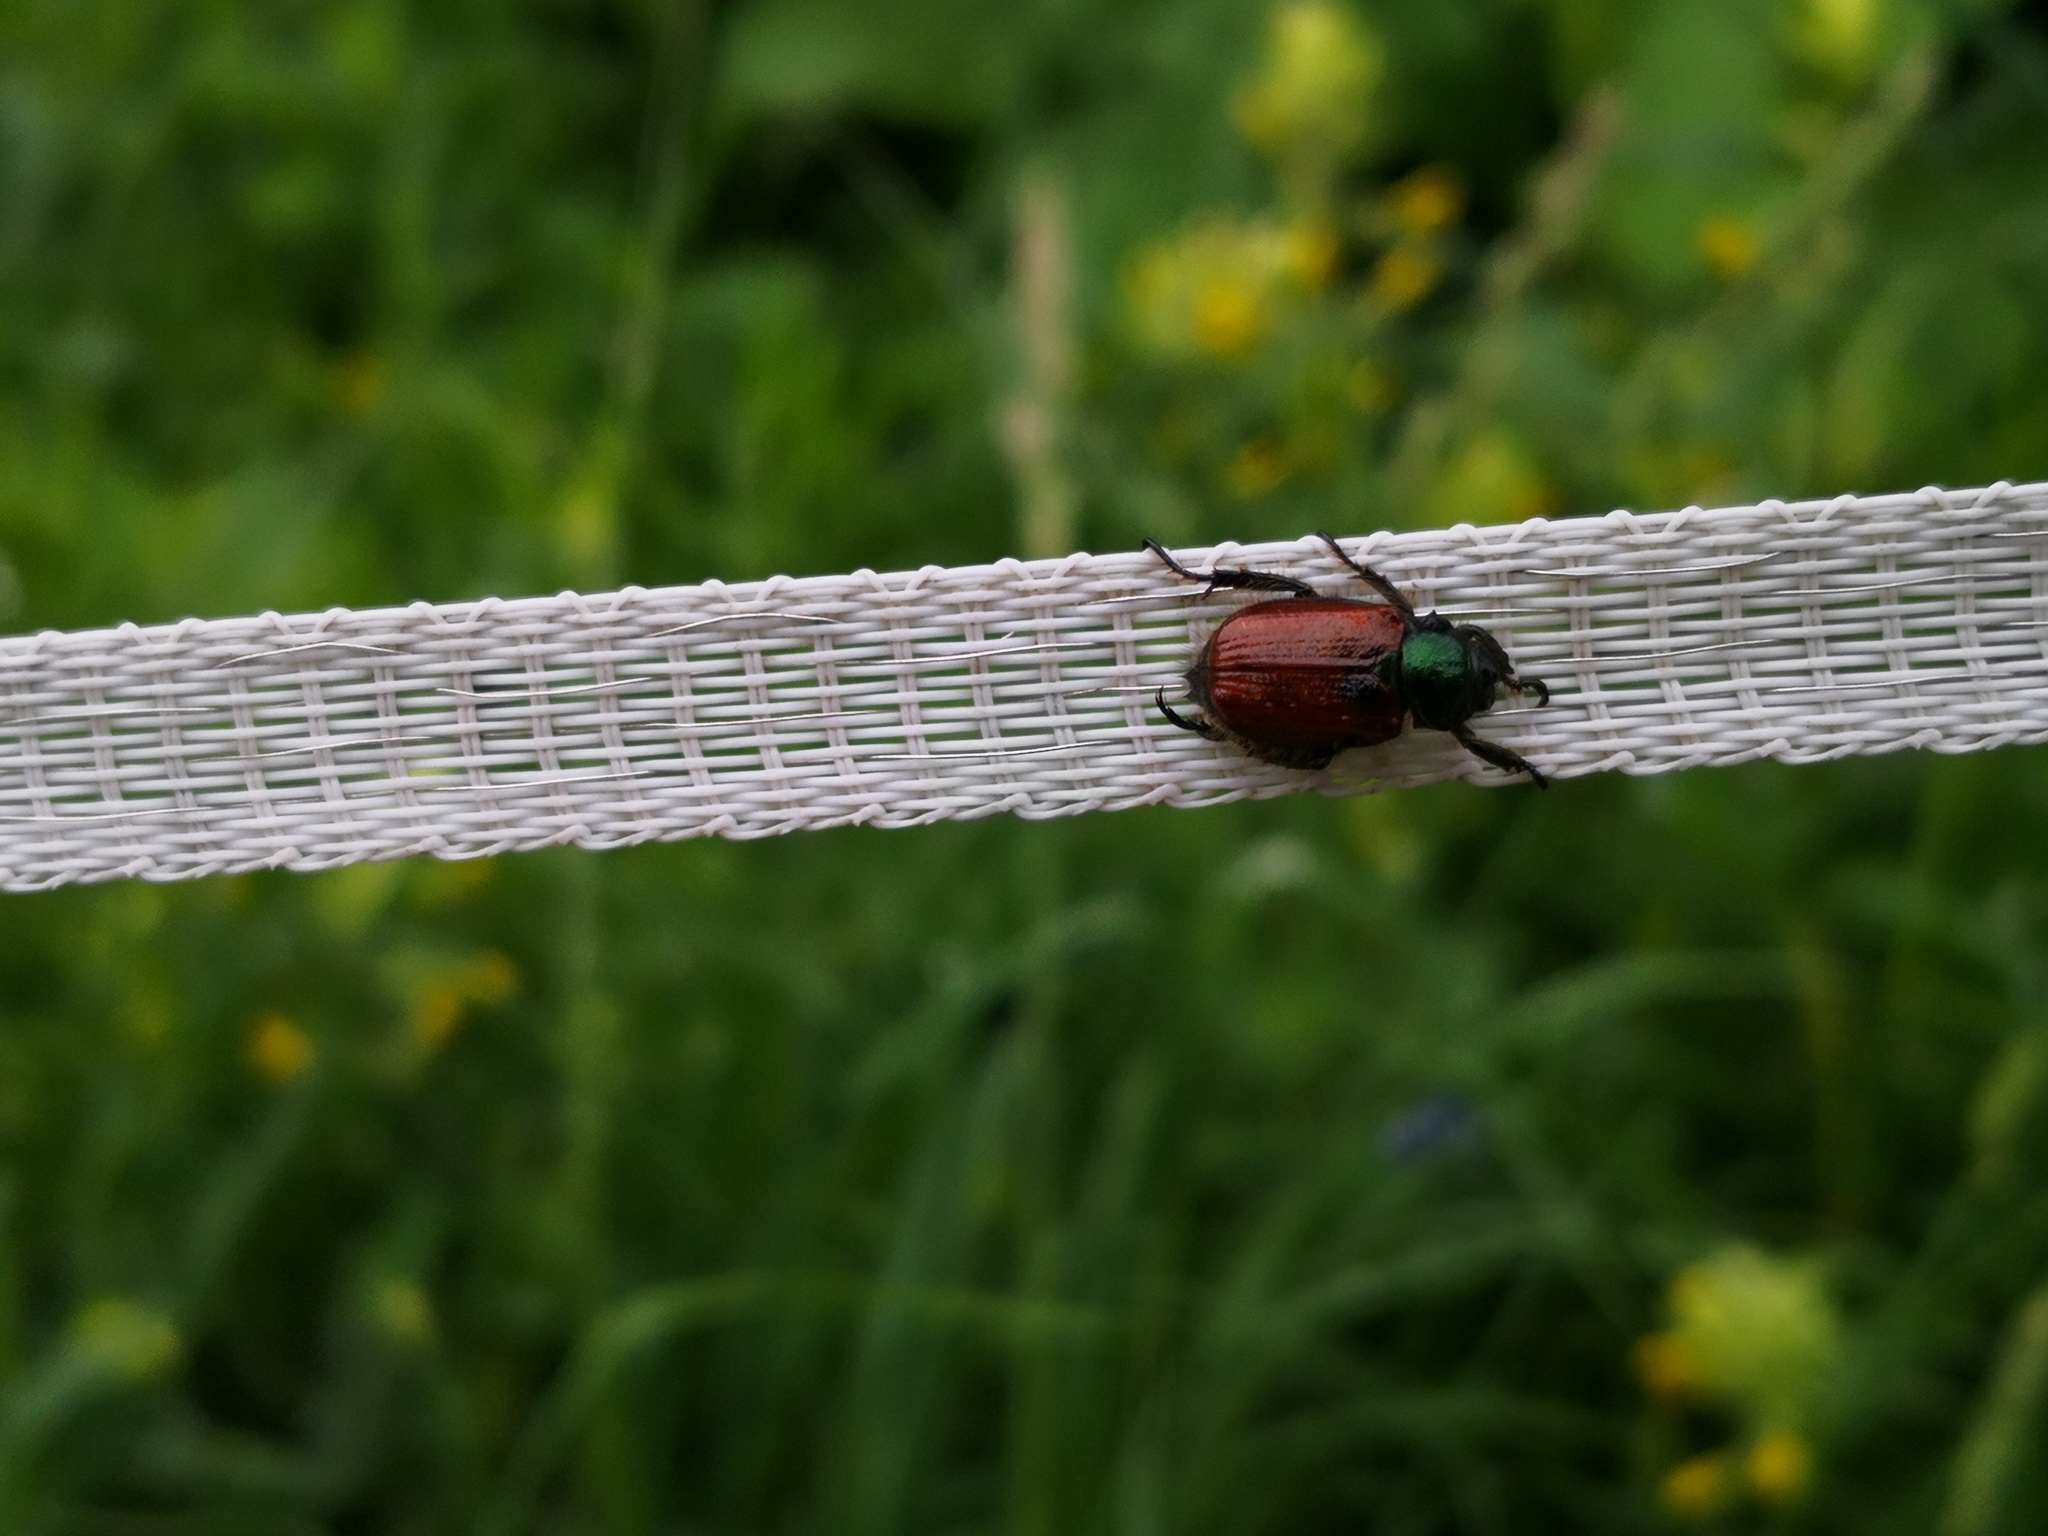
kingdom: Animalia
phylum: Arthropoda
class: Insecta
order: Coleoptera
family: Scarabaeidae
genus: Phyllopertha
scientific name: Phyllopertha horticola
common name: Garden chafer
